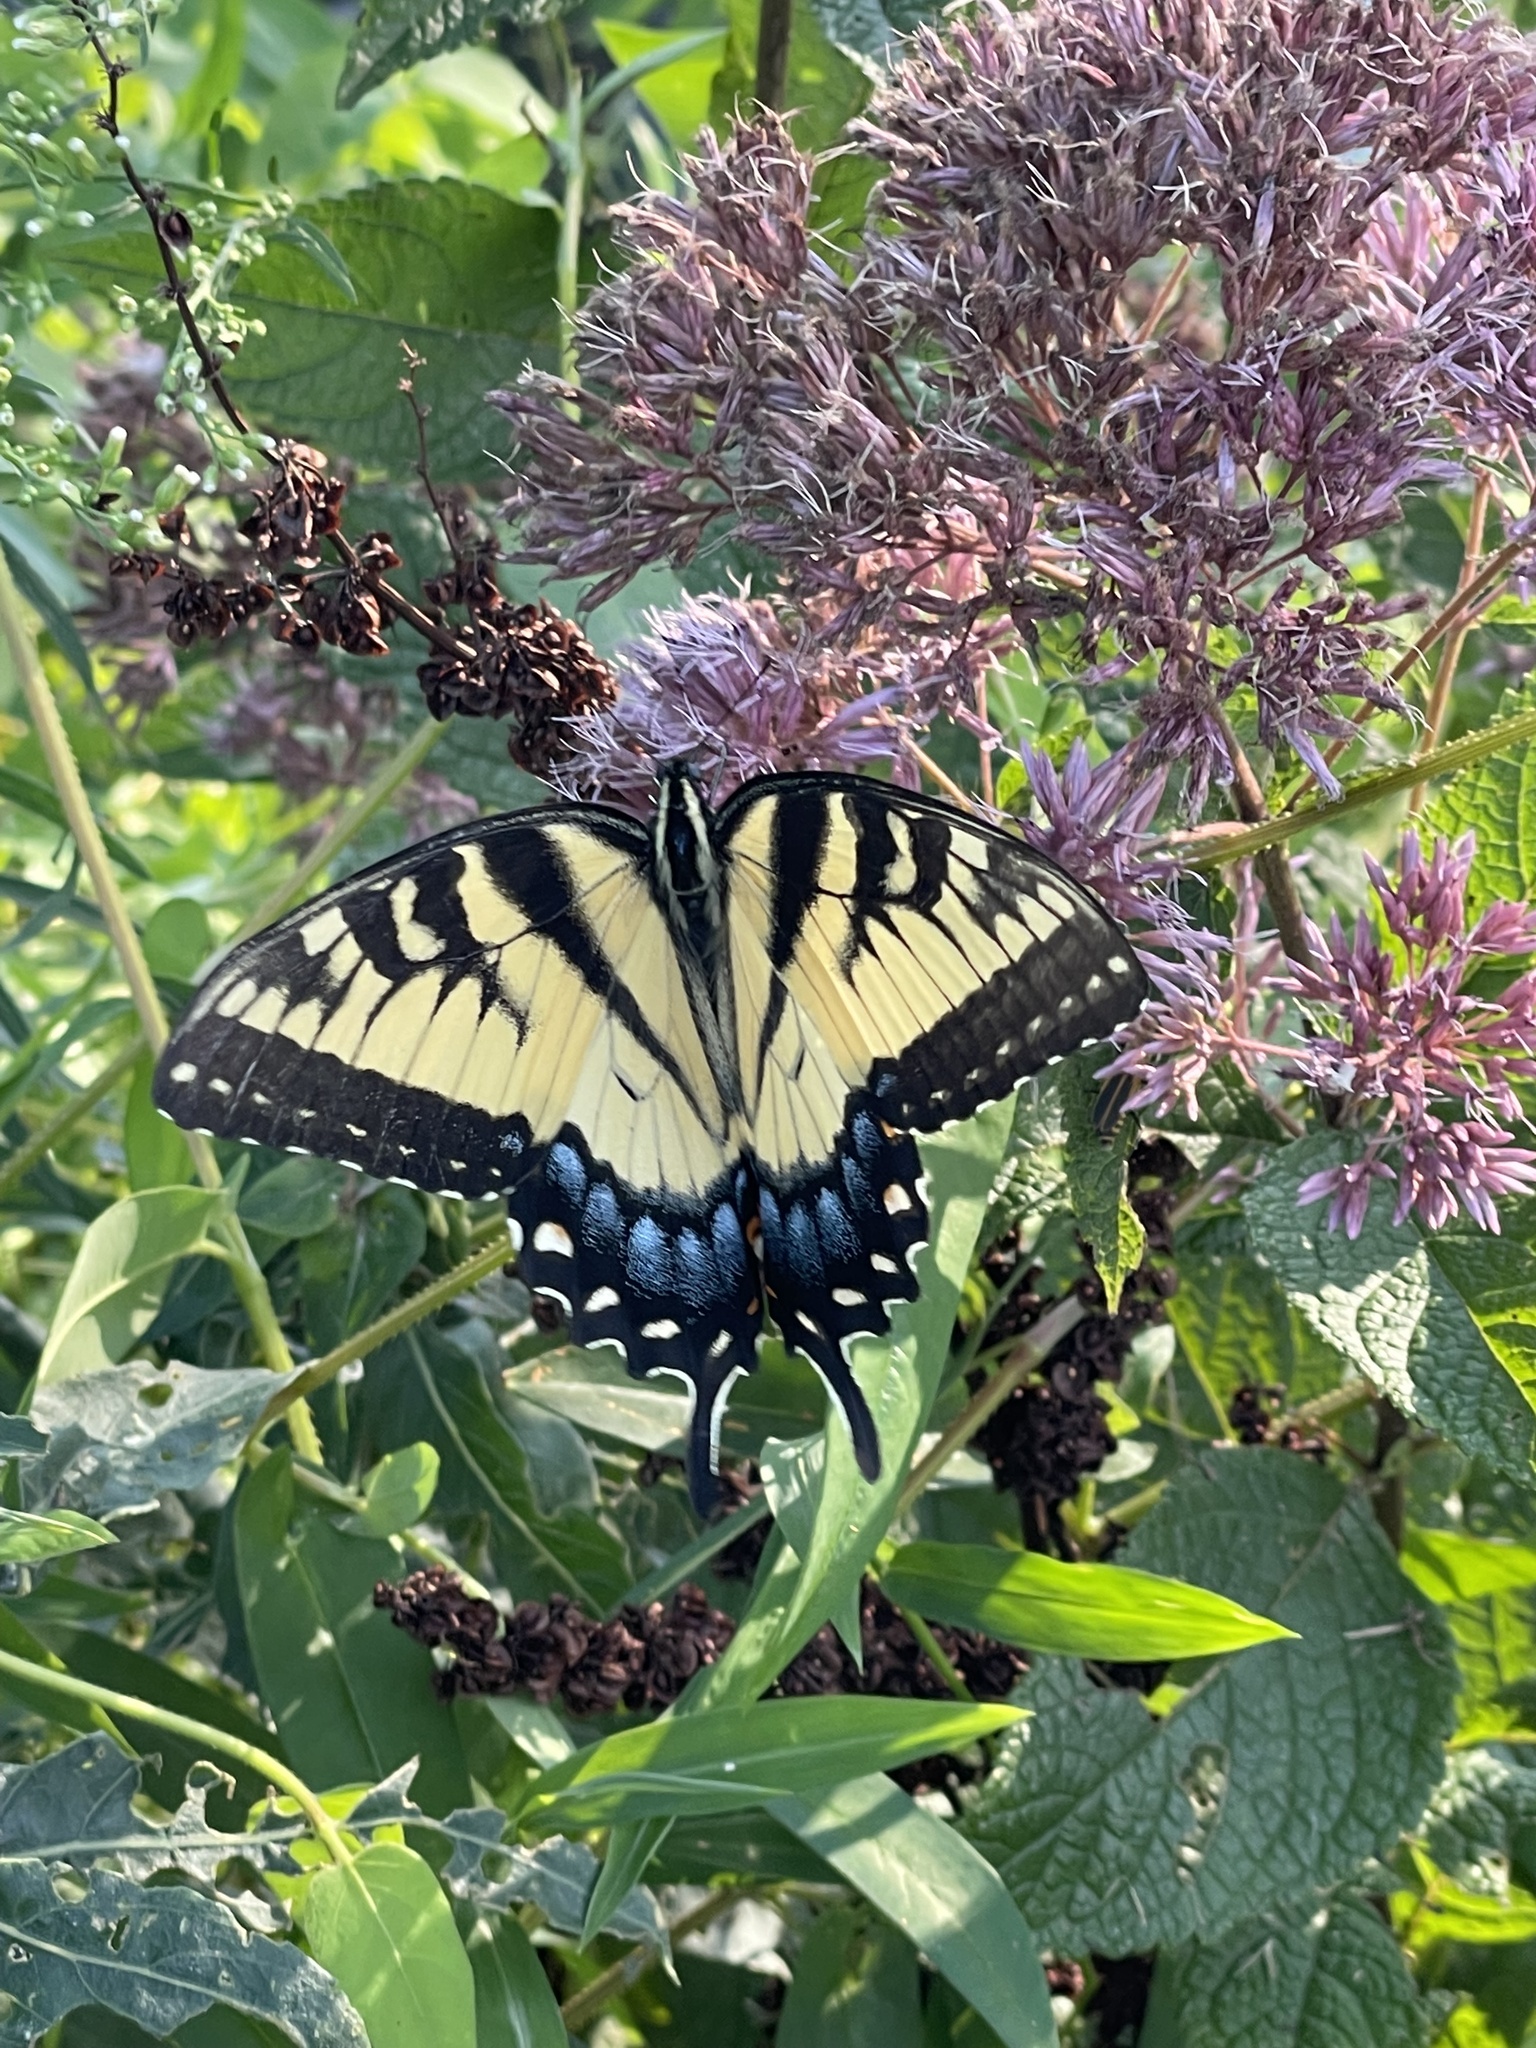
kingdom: Animalia
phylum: Arthropoda
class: Insecta
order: Lepidoptera
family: Papilionidae
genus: Papilio
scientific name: Papilio glaucus
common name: Tiger swallowtail
